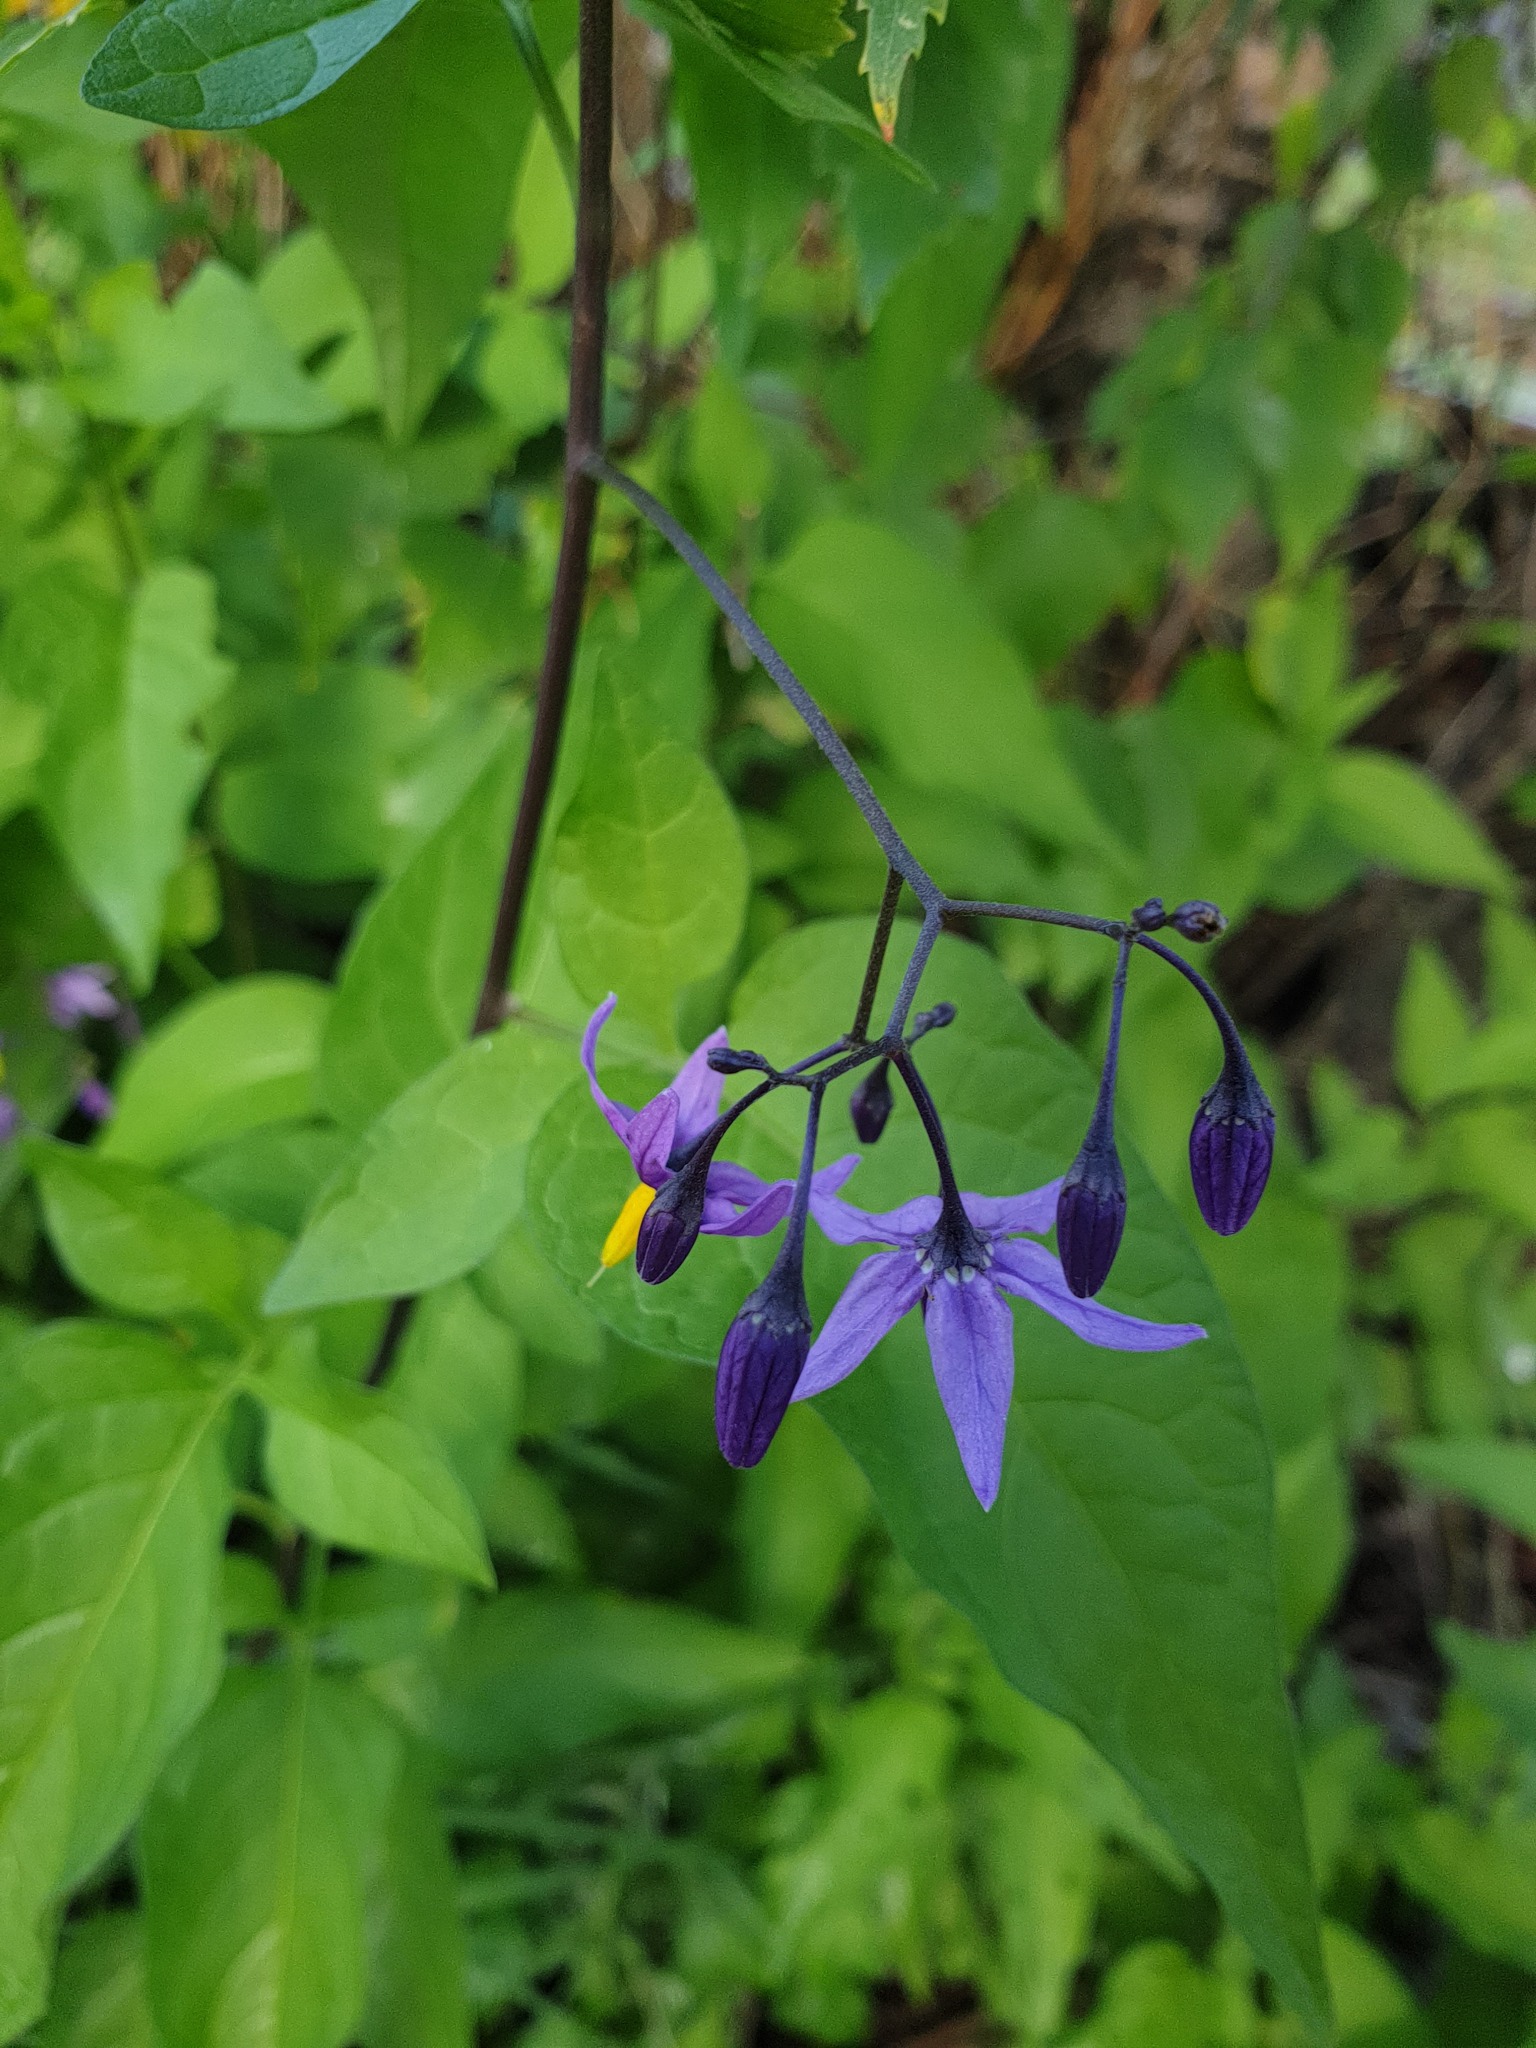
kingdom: Plantae
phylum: Tracheophyta
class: Magnoliopsida
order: Solanales
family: Solanaceae
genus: Solanum
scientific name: Solanum dulcamara
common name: Climbing nightshade
